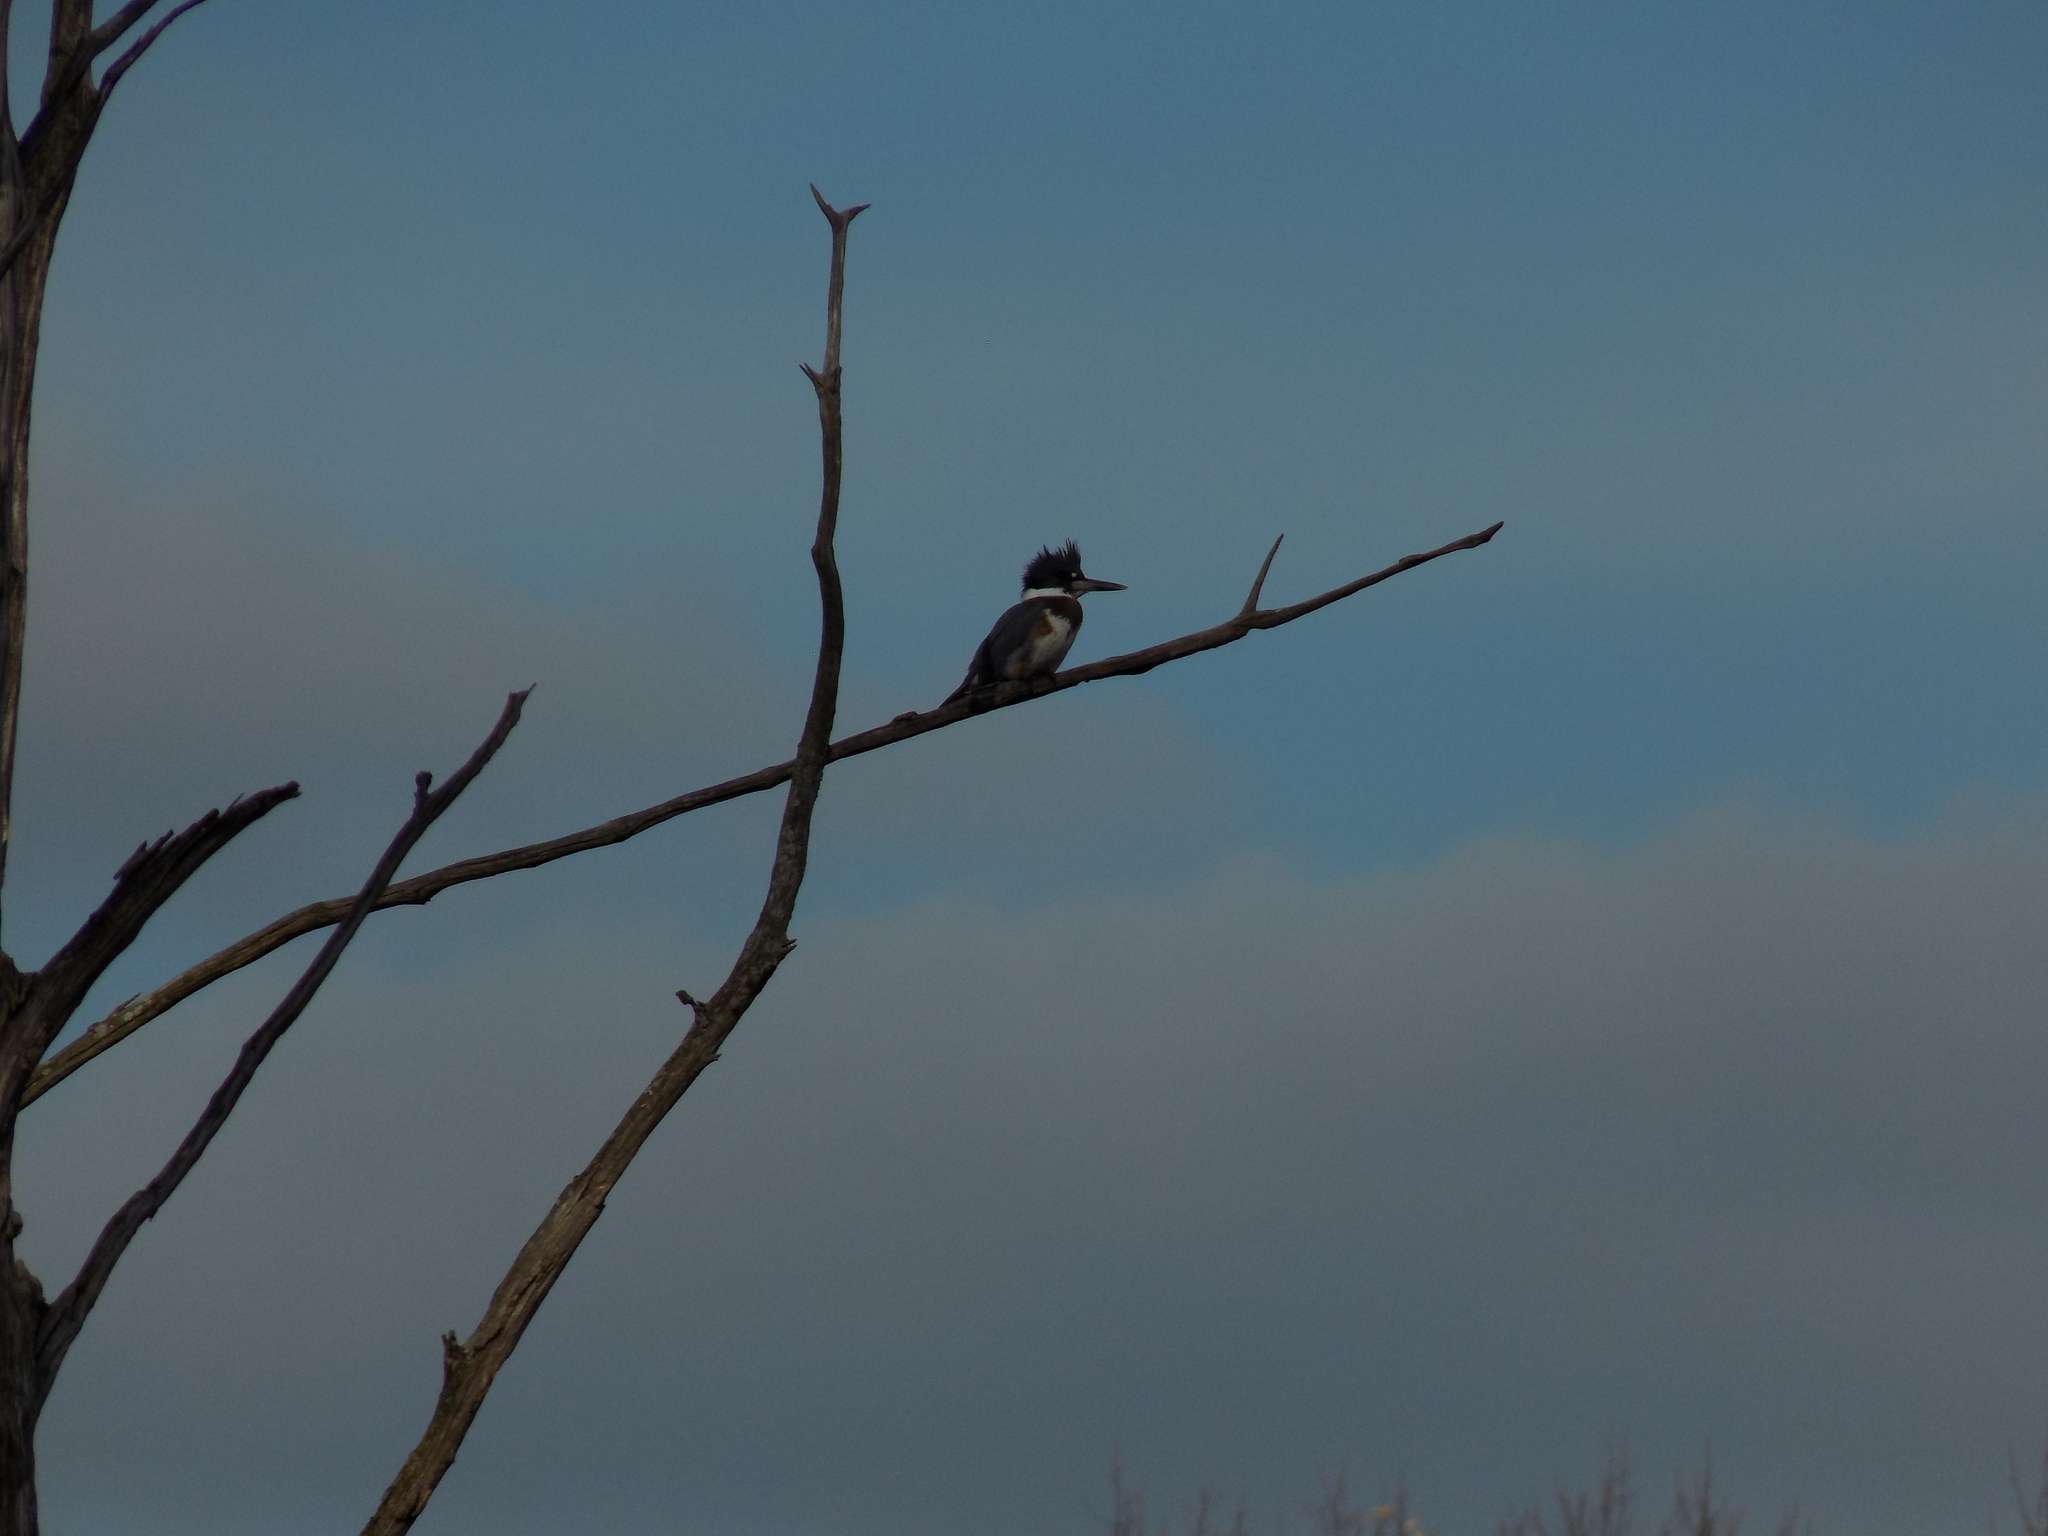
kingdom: Animalia
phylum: Chordata
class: Aves
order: Coraciiformes
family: Alcedinidae
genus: Megaceryle
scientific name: Megaceryle alcyon
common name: Belted kingfisher
